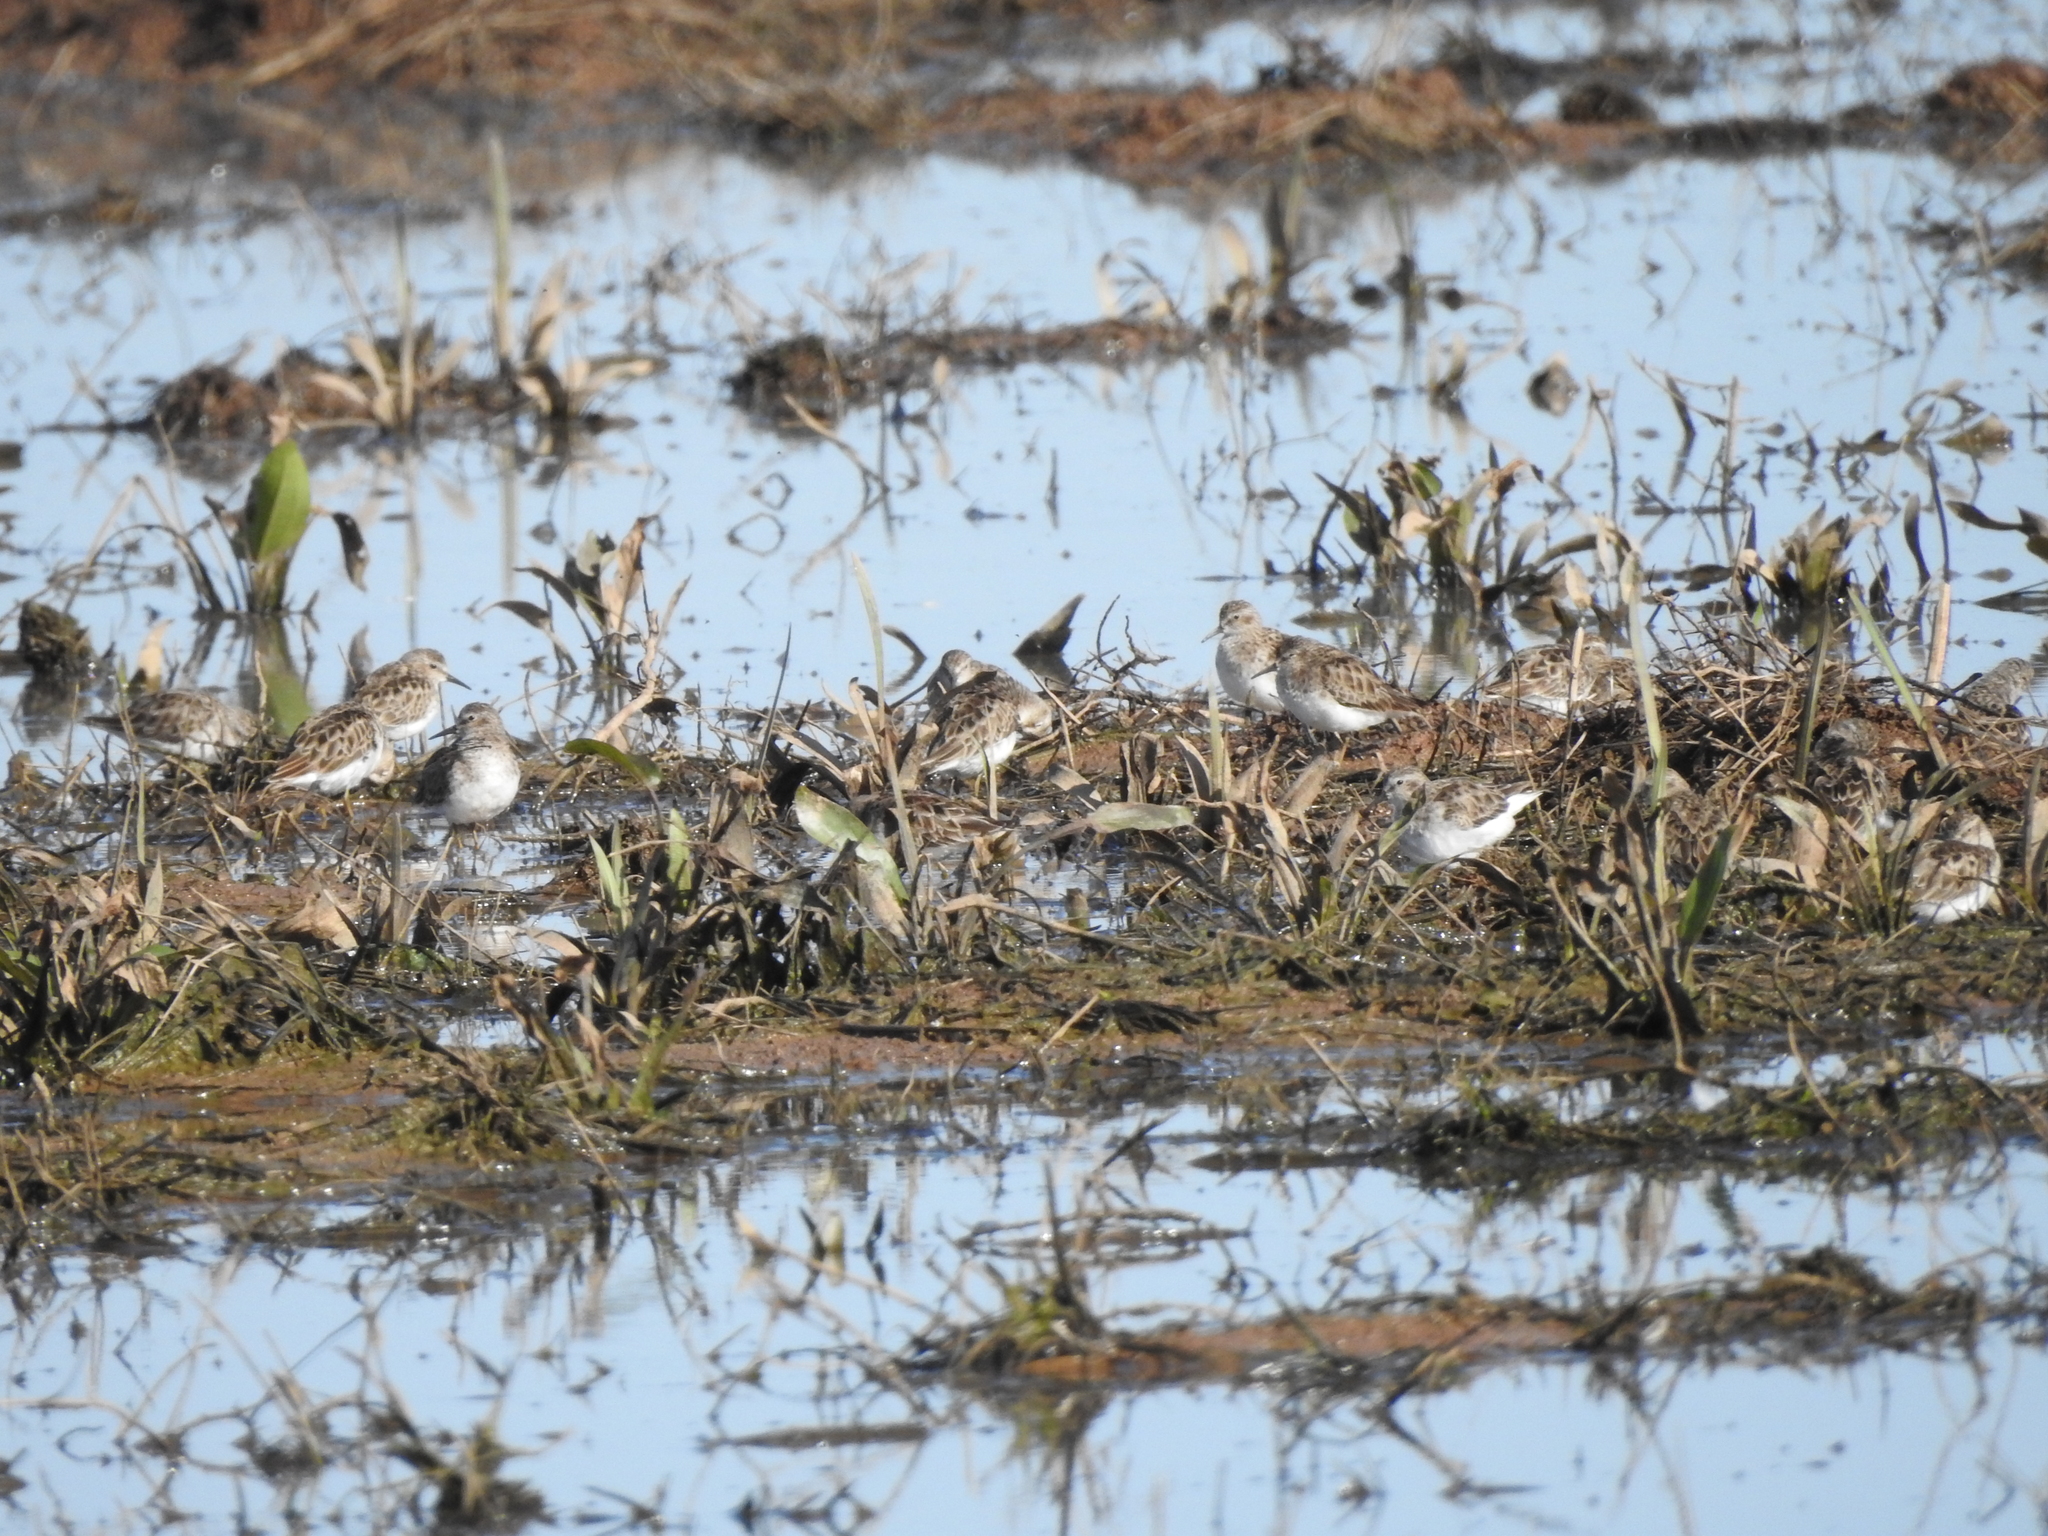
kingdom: Animalia
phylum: Chordata
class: Aves
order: Charadriiformes
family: Scolopacidae
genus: Calidris
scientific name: Calidris minutilla
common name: Least sandpiper
